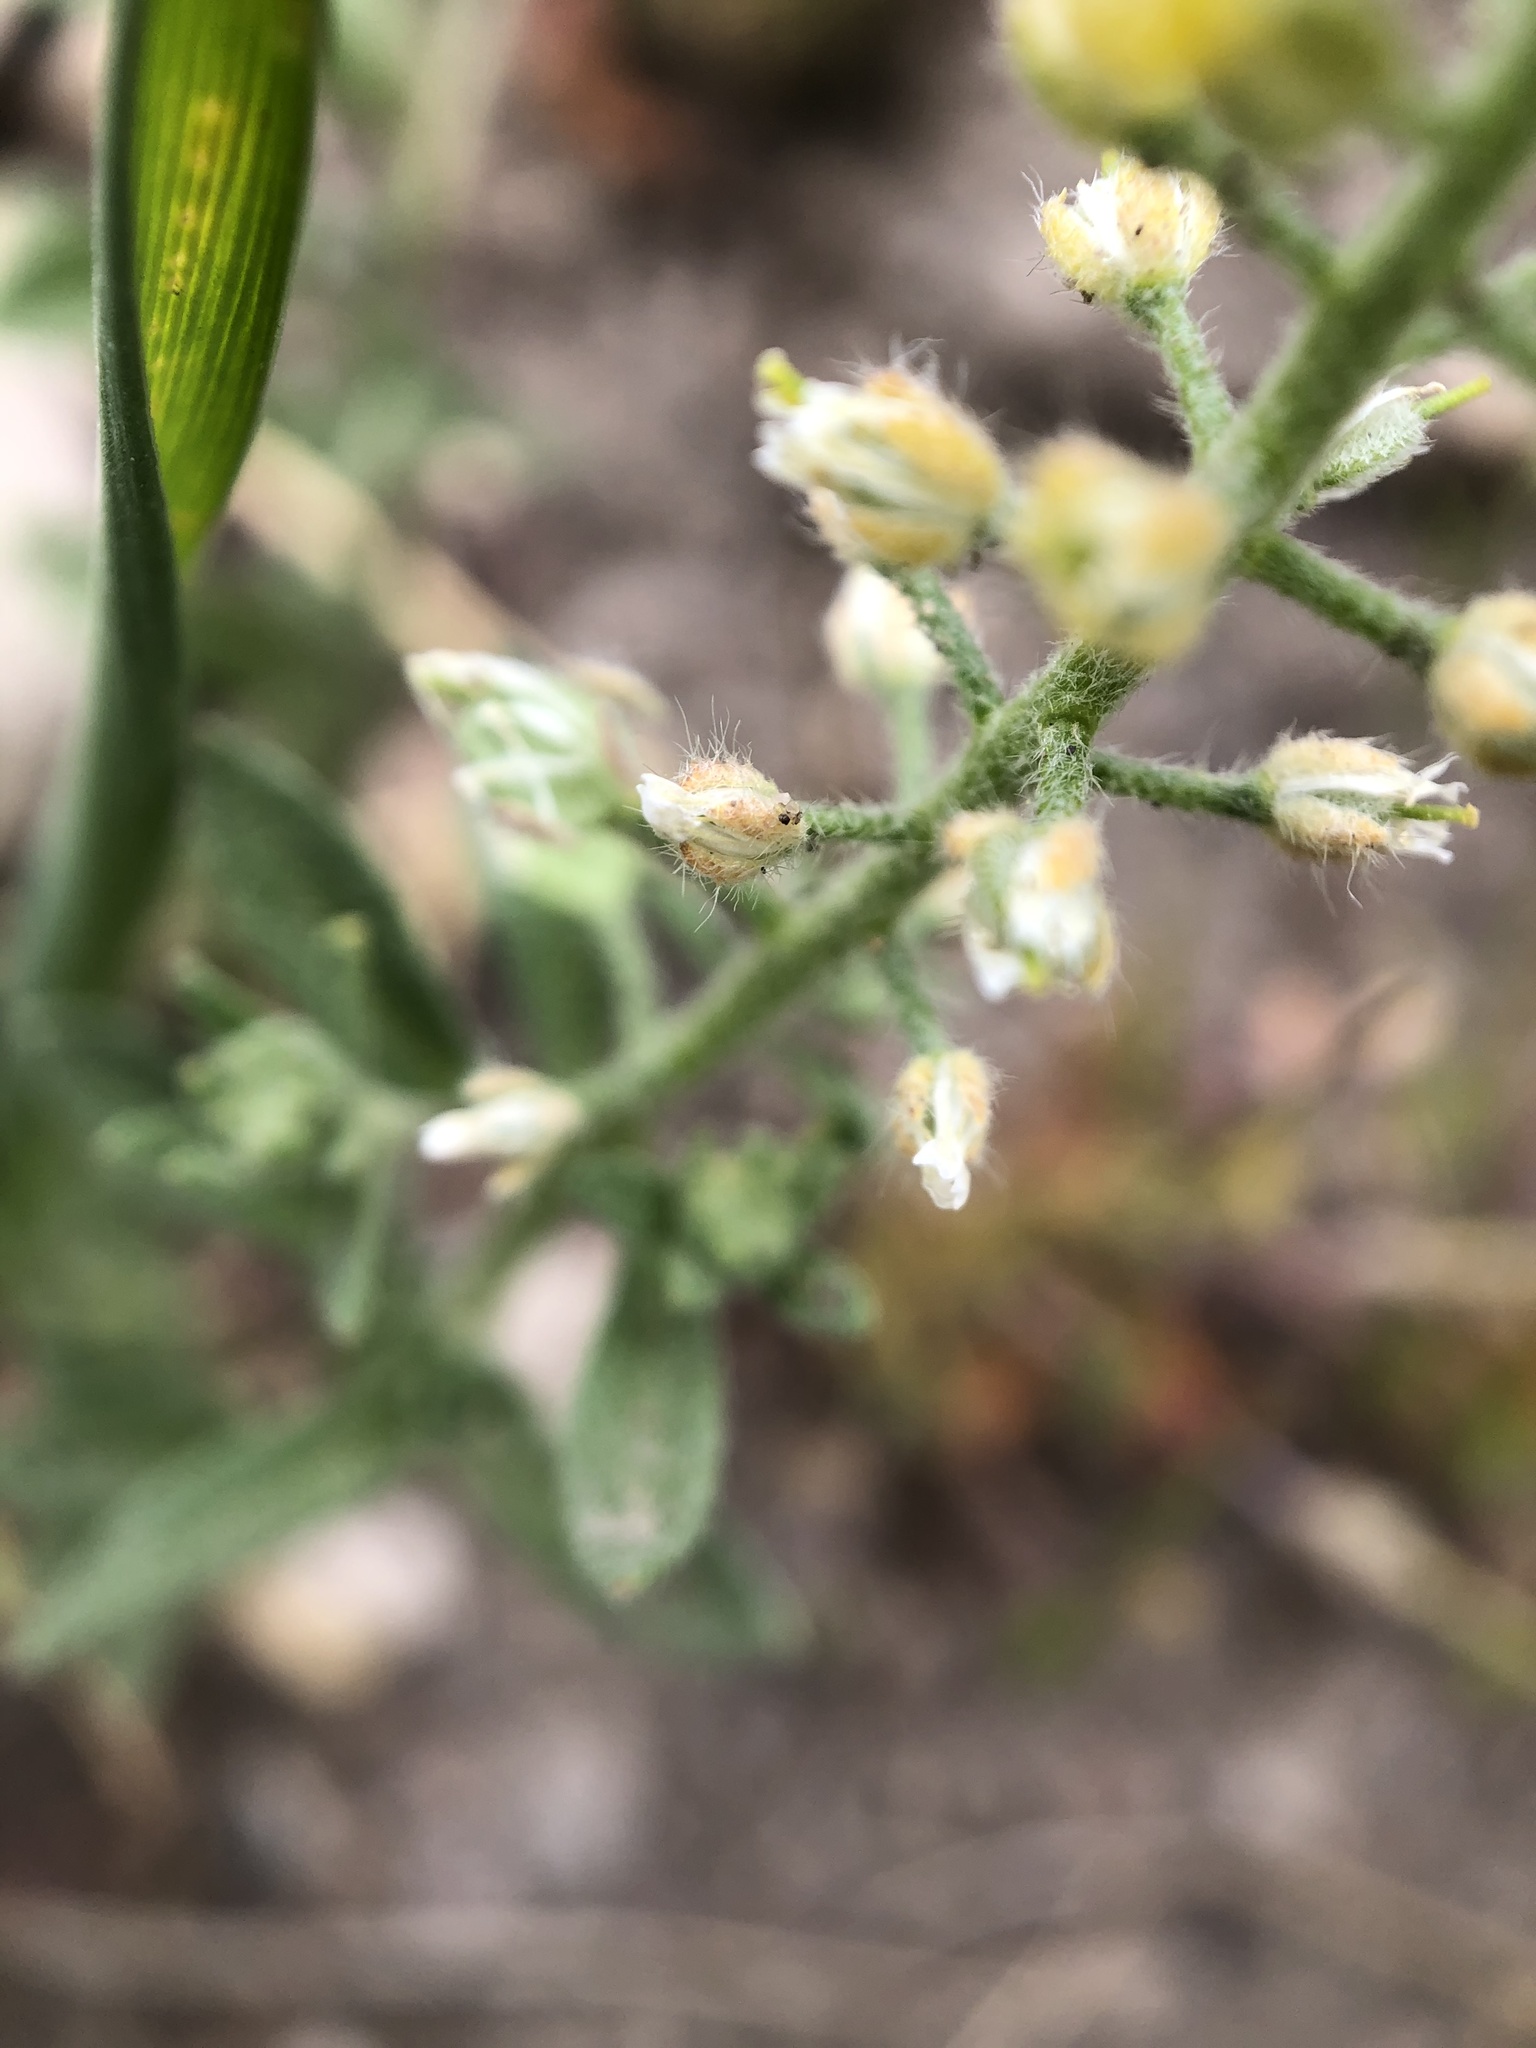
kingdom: Plantae
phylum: Tracheophyta
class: Magnoliopsida
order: Brassicales
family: Brassicaceae
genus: Alyssum
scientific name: Alyssum simplex
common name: Alyssum
